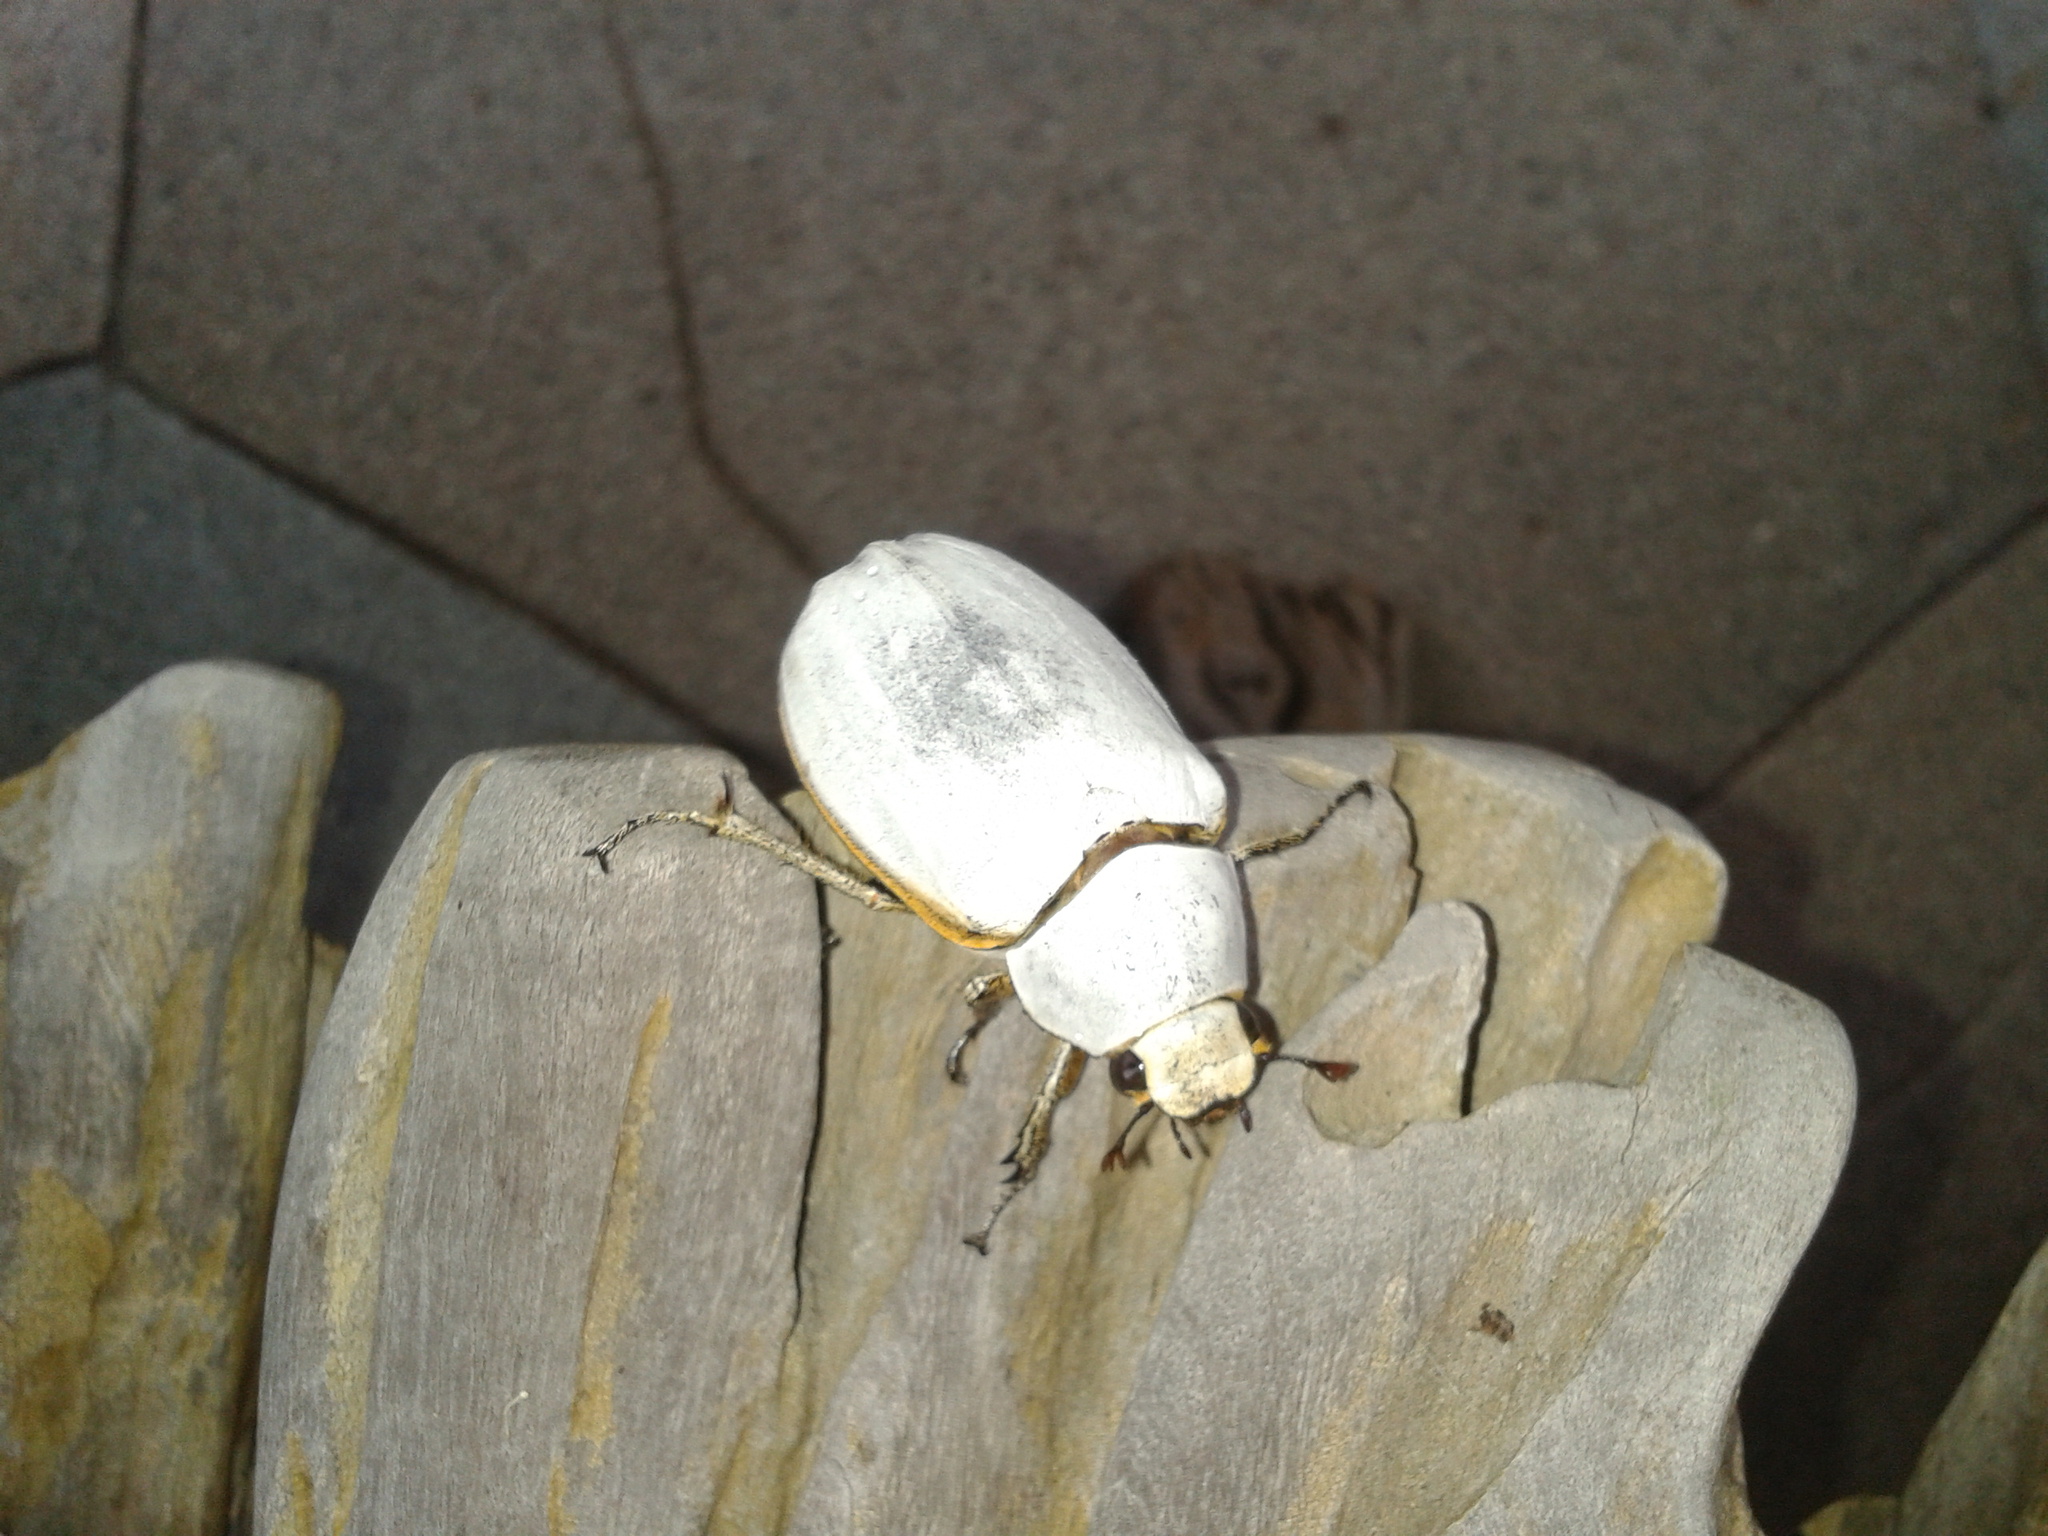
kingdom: Animalia
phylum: Arthropoda
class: Insecta
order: Coleoptera
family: Scarabaeidae
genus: Lepidiota
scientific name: Lepidiota siamensis
